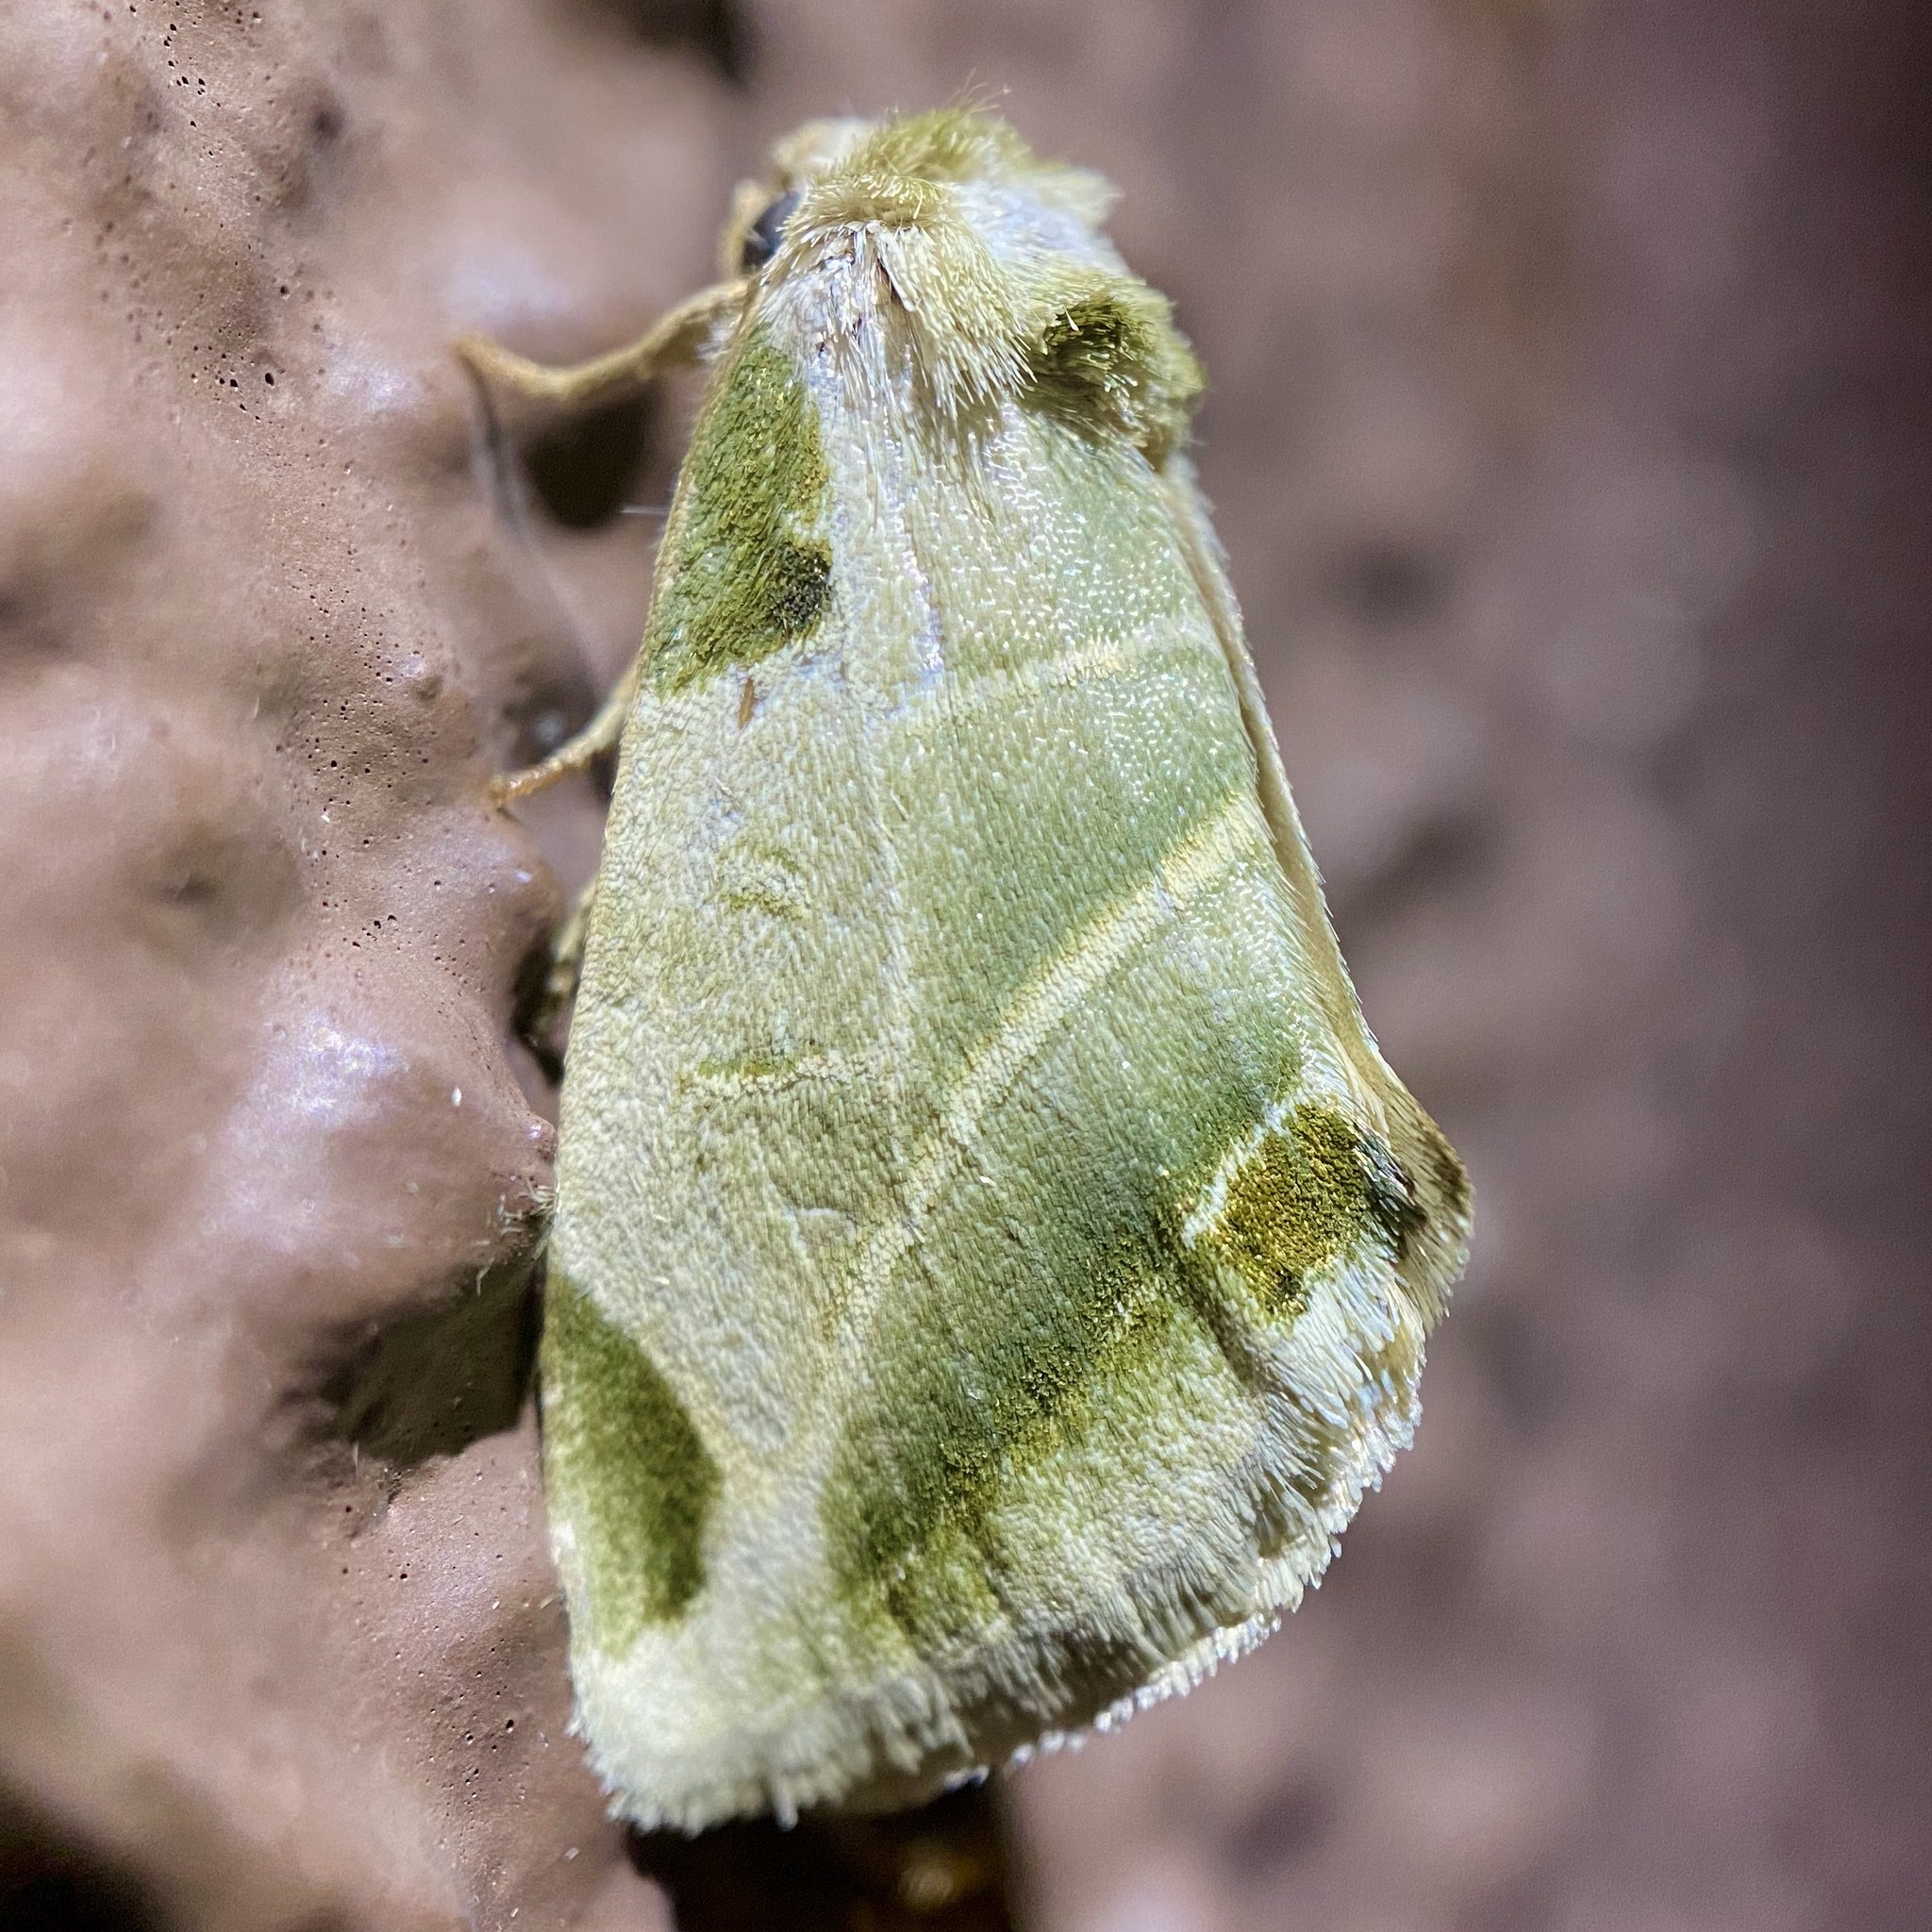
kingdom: Animalia
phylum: Arthropoda
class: Insecta
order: Lepidoptera
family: Noctuidae
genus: Heminocloa
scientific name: Heminocloa mirabilis
